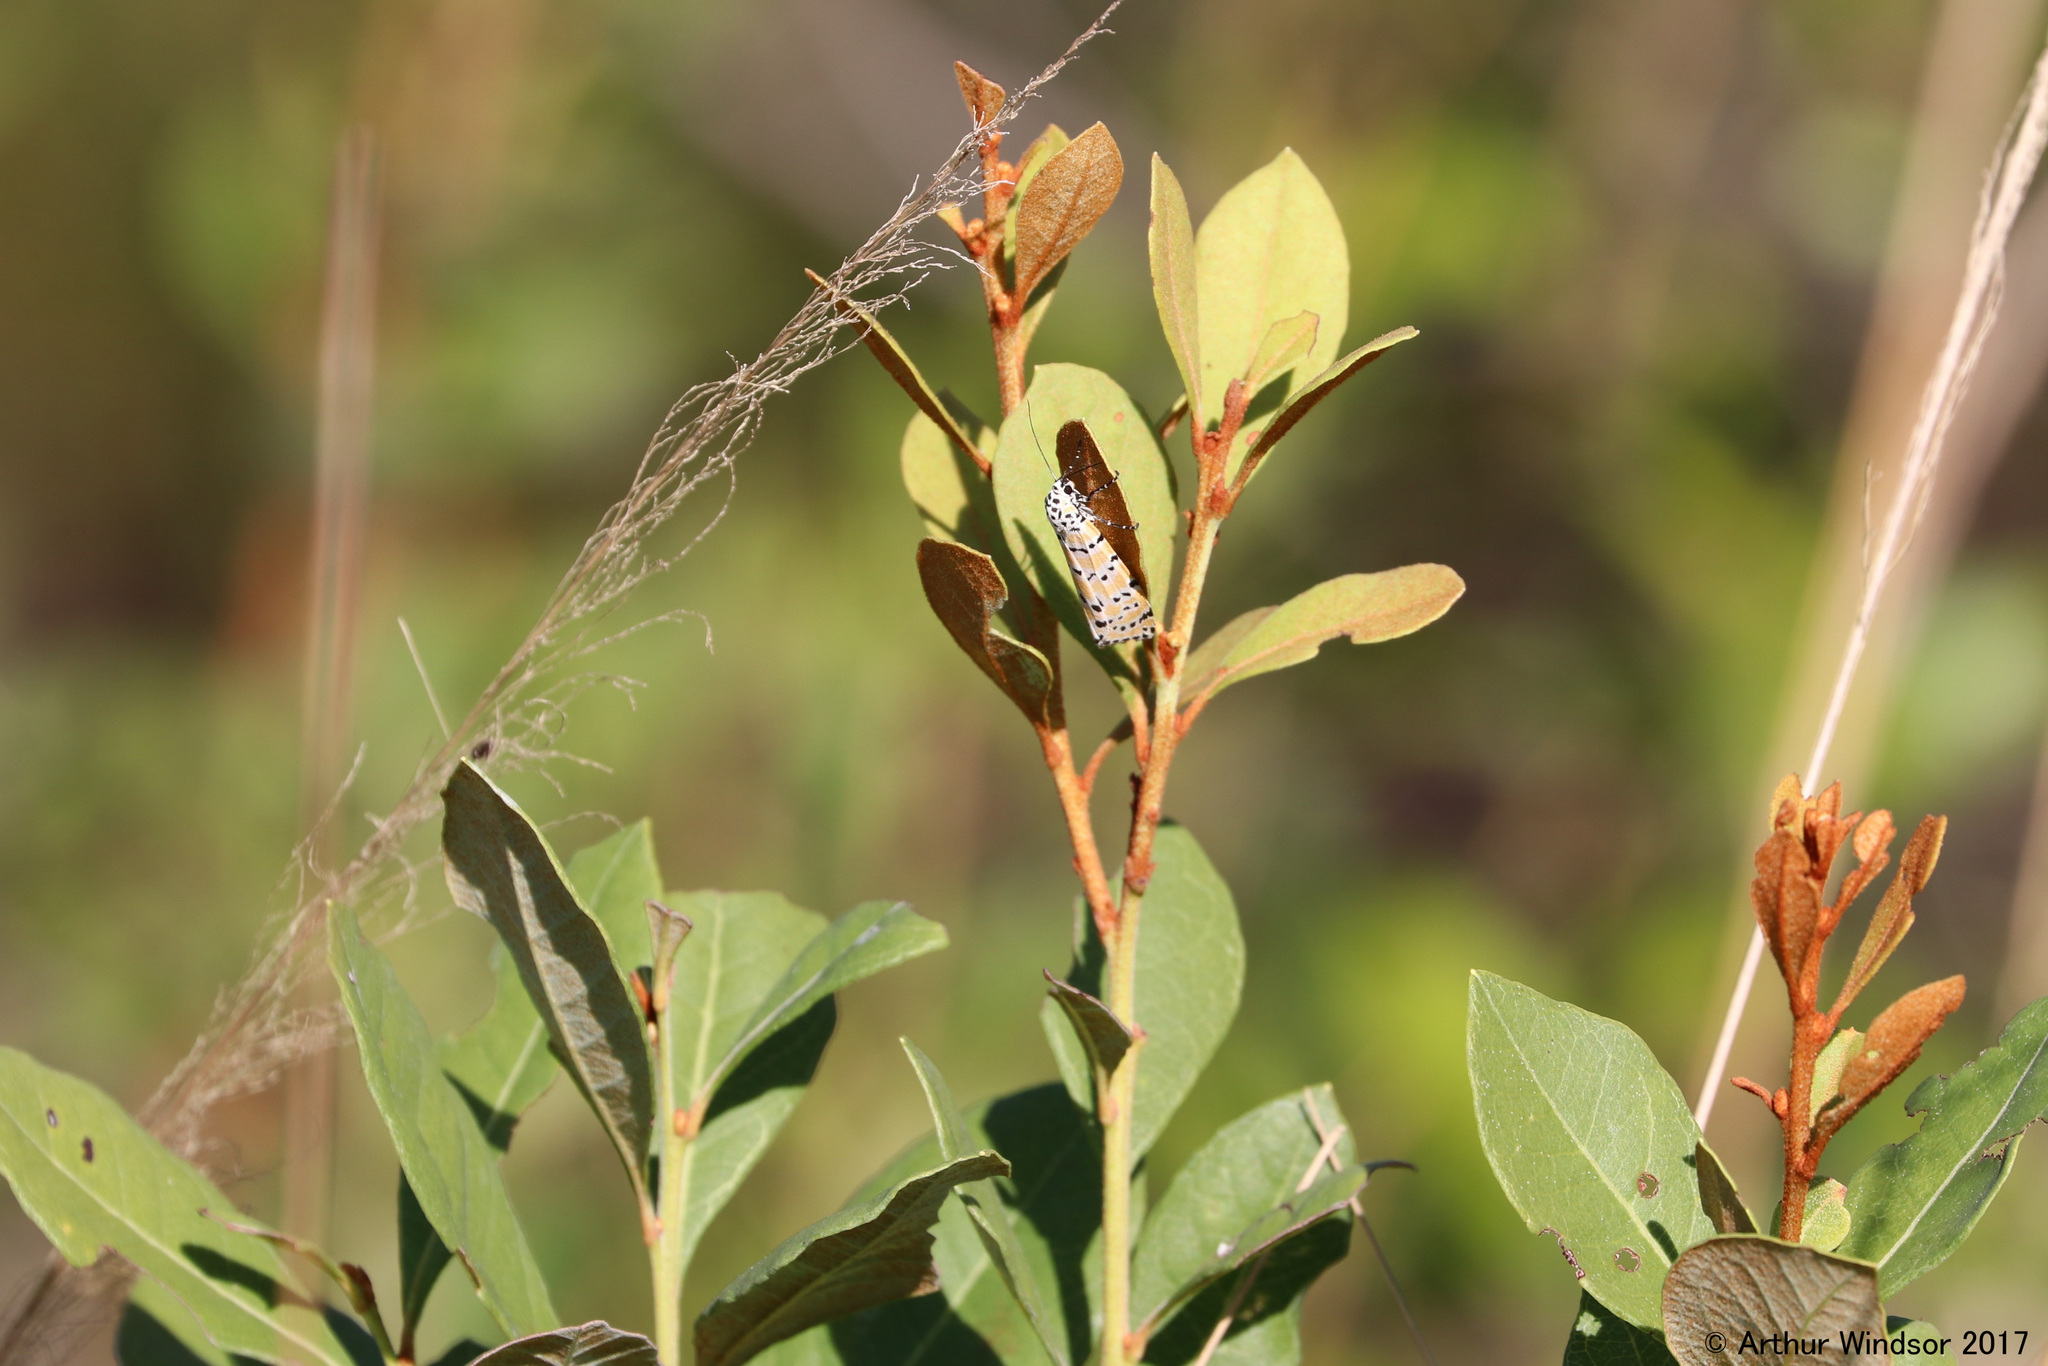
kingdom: Animalia
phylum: Arthropoda
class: Insecta
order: Lepidoptera
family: Erebidae
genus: Utetheisa
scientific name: Utetheisa ornatrix
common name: Beautiful utetheisa
